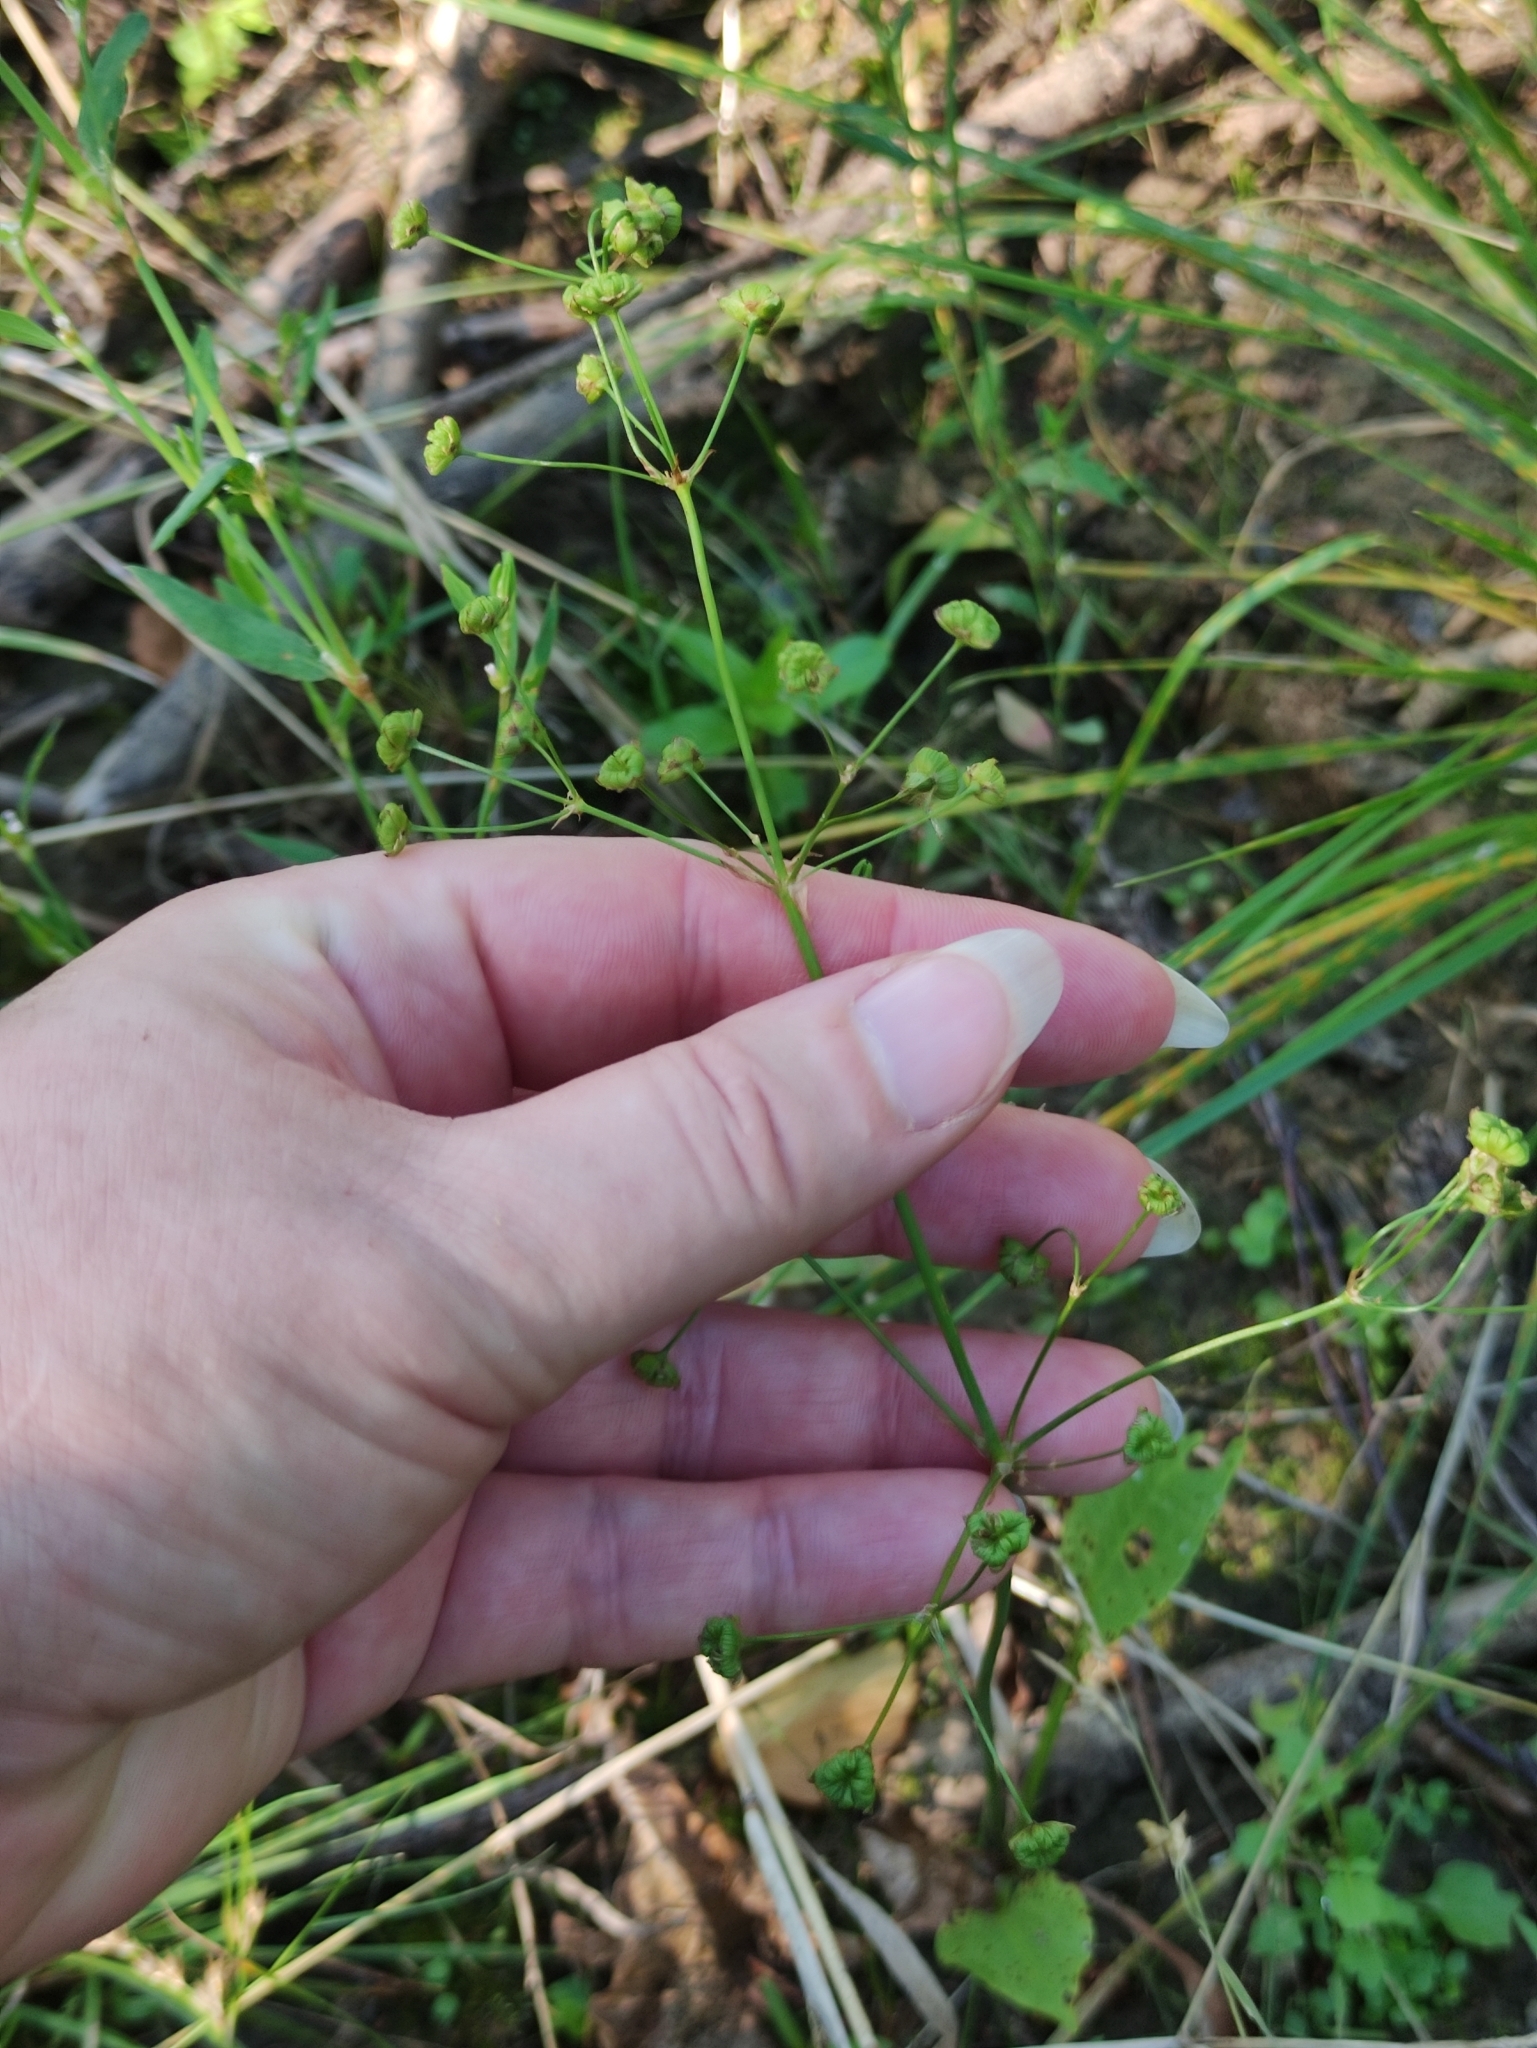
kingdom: Plantae
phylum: Tracheophyta
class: Liliopsida
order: Alismatales
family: Alismataceae
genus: Alisma
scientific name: Alisma plantago-aquatica
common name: Water-plantain
